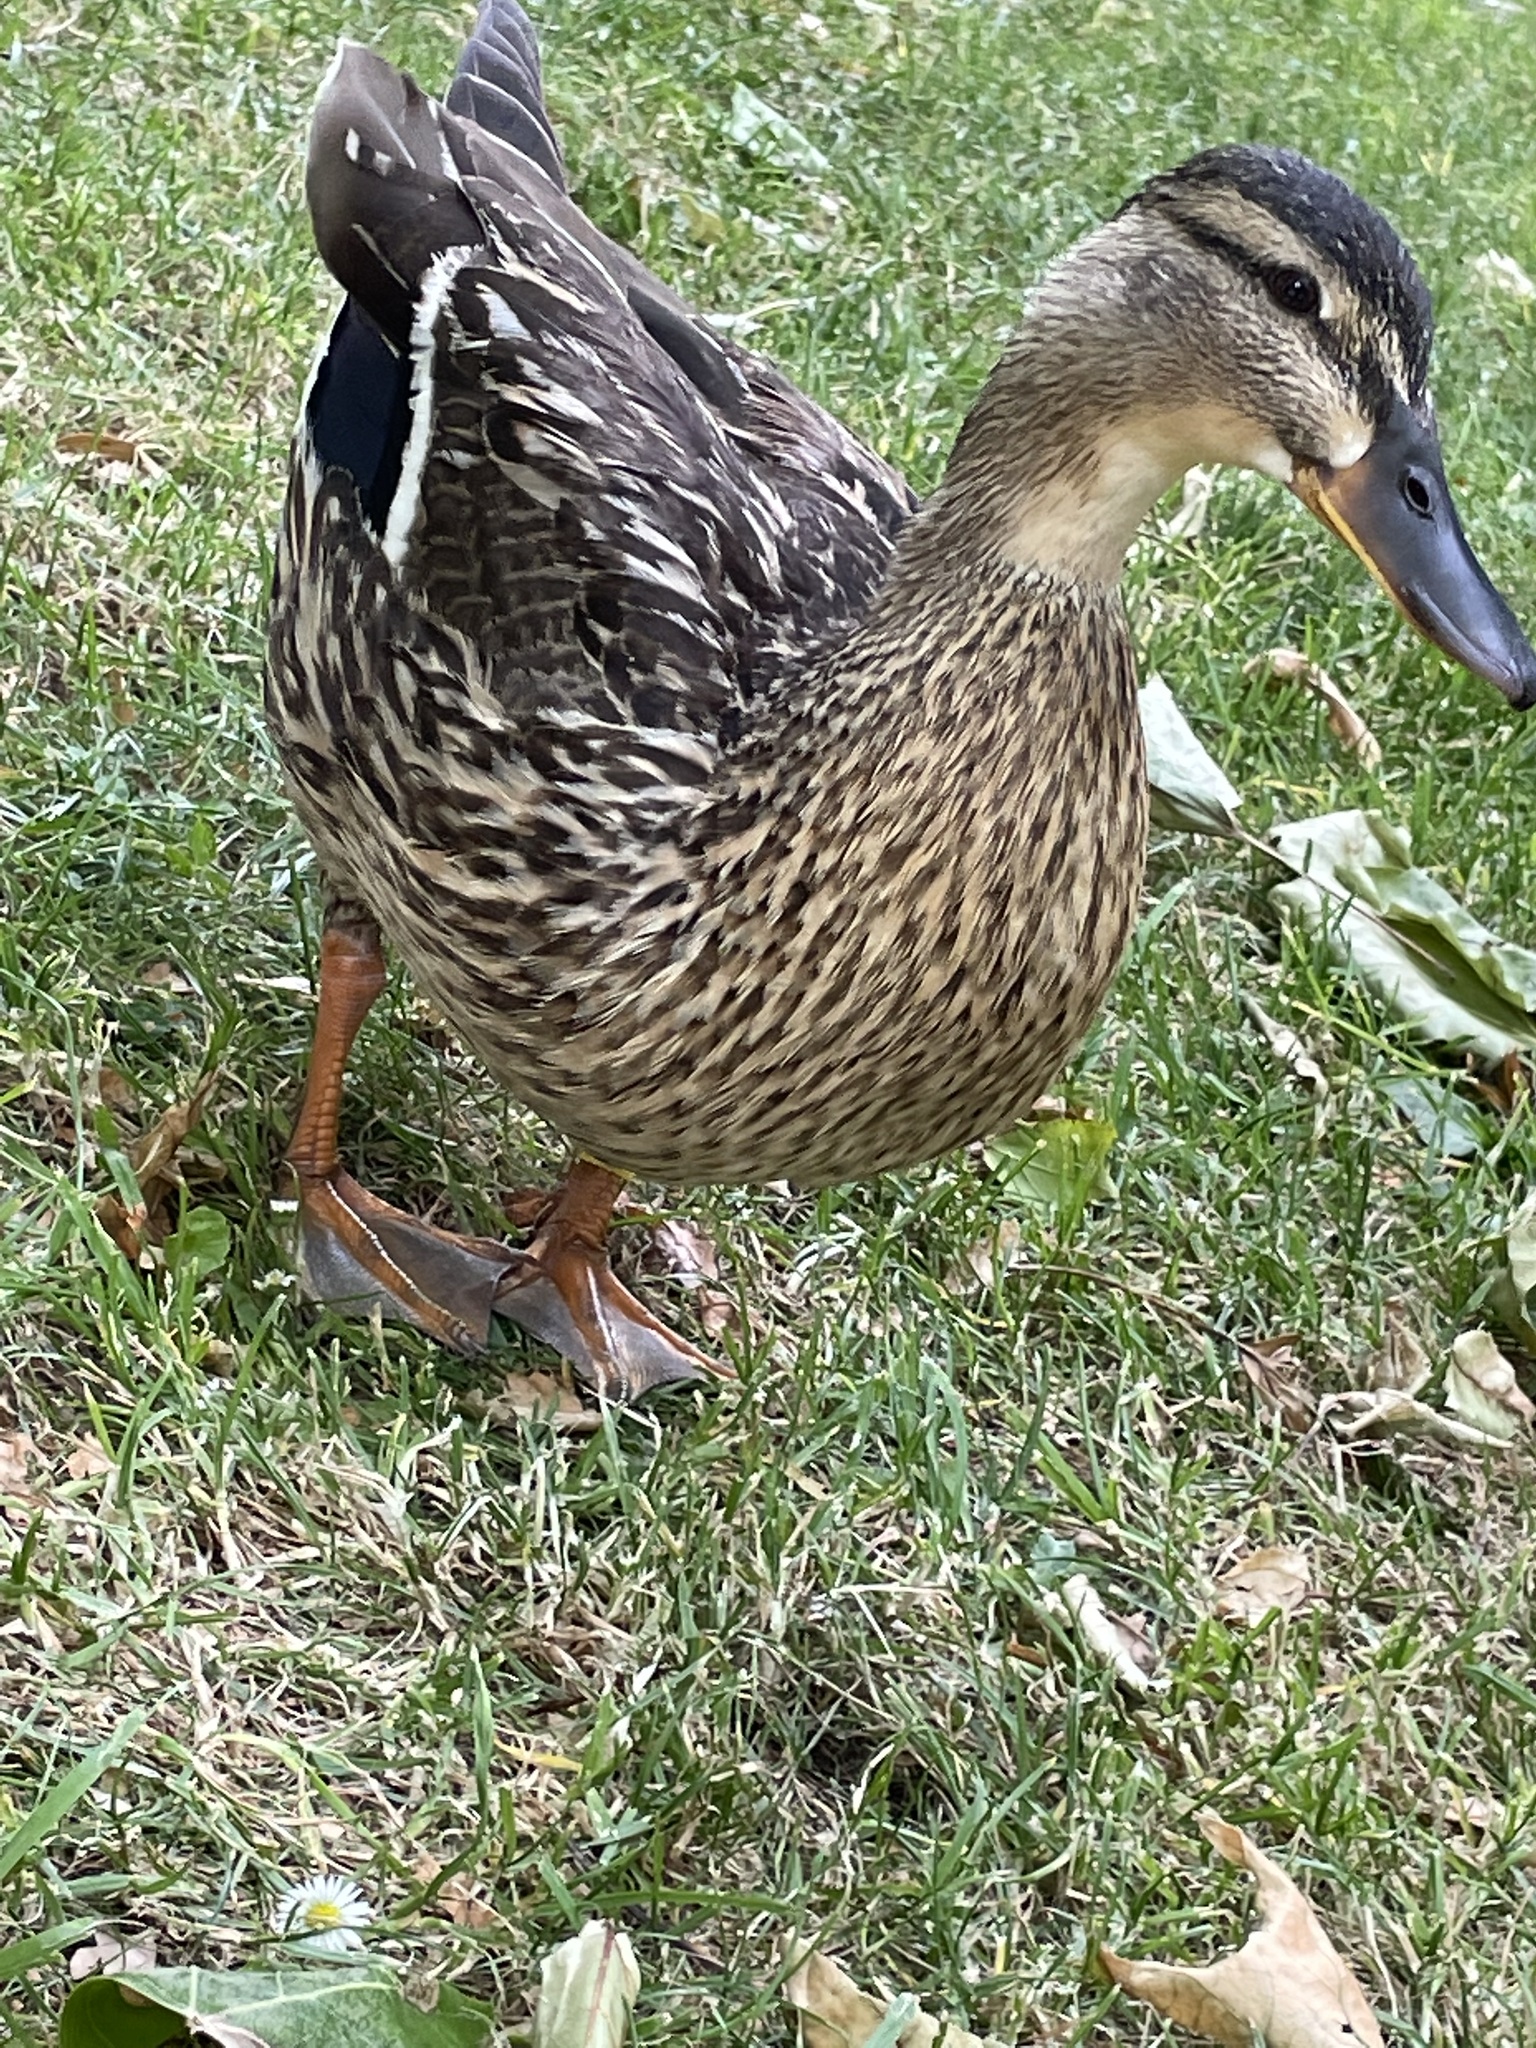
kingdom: Animalia
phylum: Chordata
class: Aves
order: Anseriformes
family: Anatidae
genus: Anas
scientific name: Anas platyrhynchos
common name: Mallard
